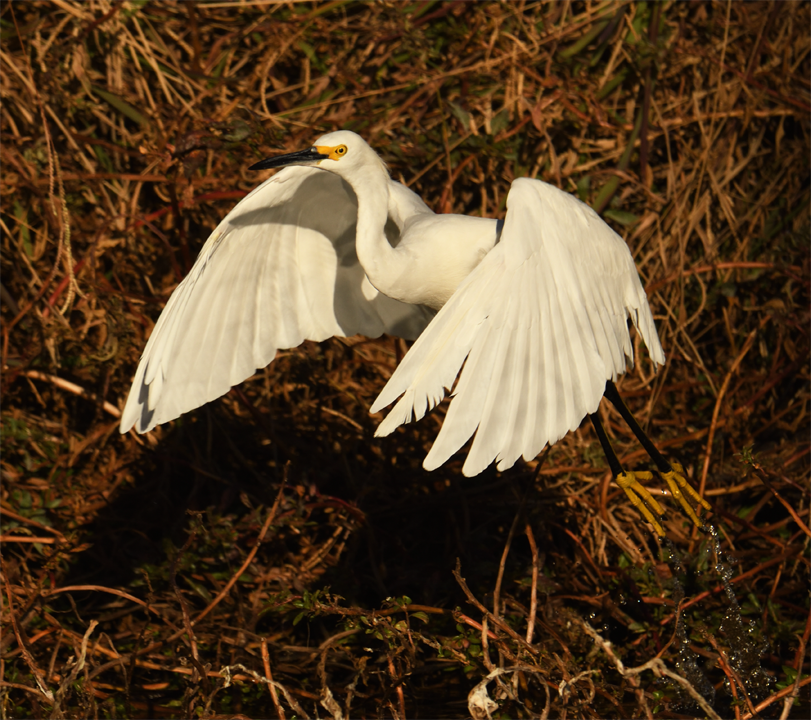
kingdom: Animalia
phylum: Chordata
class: Aves
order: Pelecaniformes
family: Ardeidae
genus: Egretta
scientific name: Egretta thula
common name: Snowy egret
